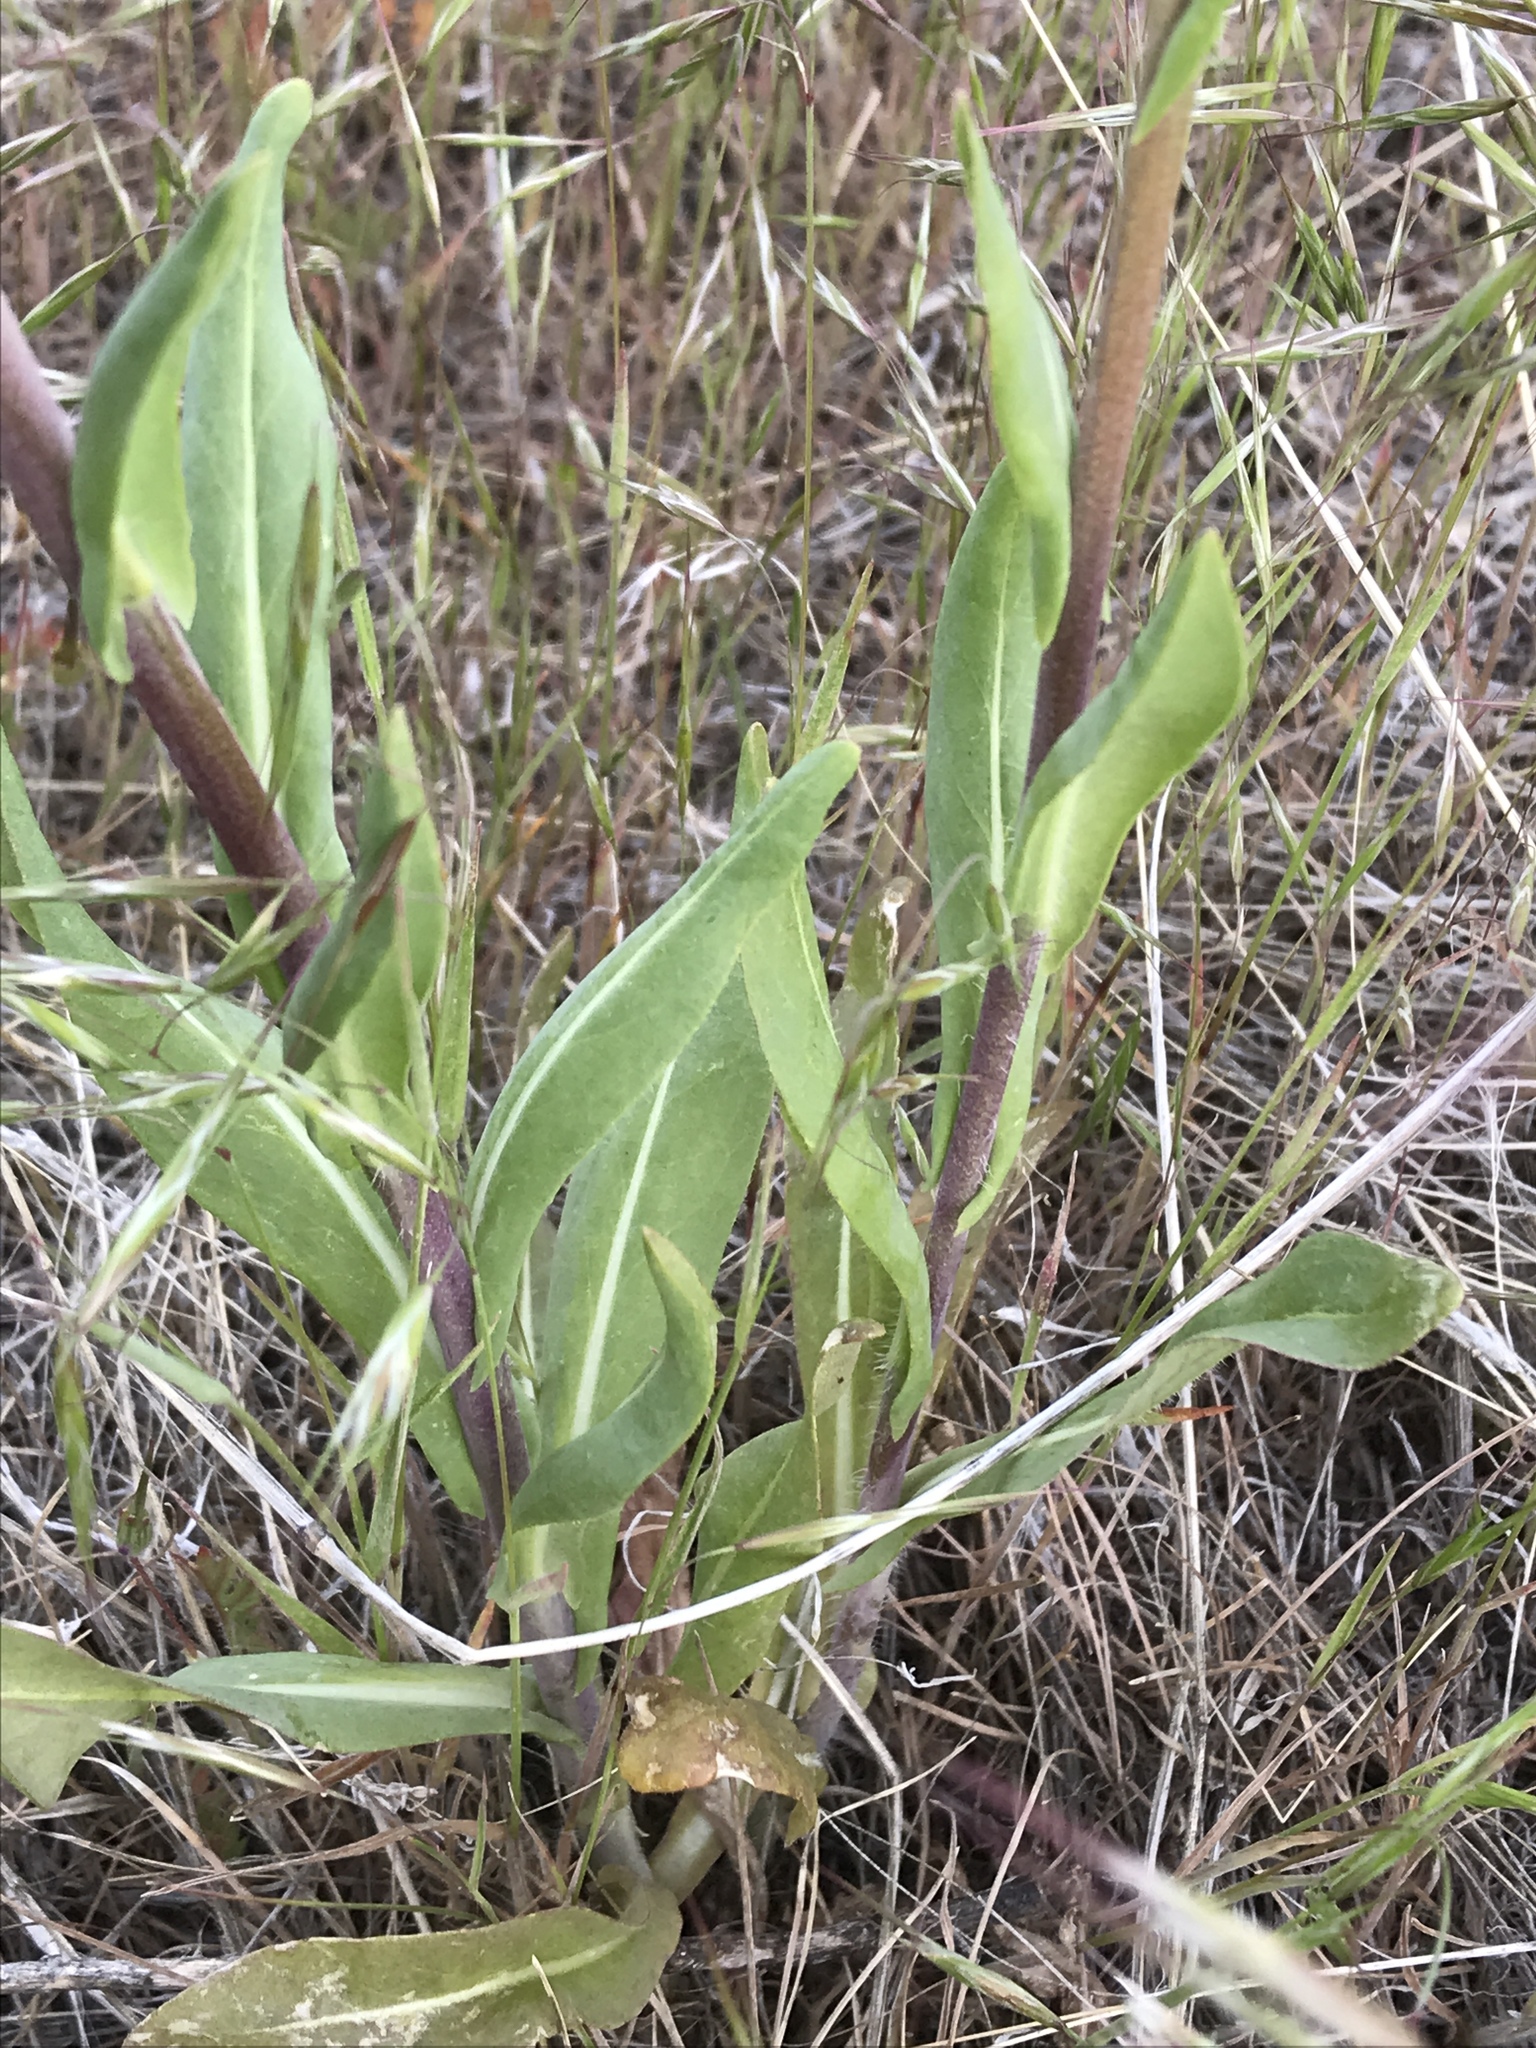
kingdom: Plantae
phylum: Tracheophyta
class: Magnoliopsida
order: Brassicales
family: Brassicaceae
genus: Isatis
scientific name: Isatis tinctoria
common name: Woad
